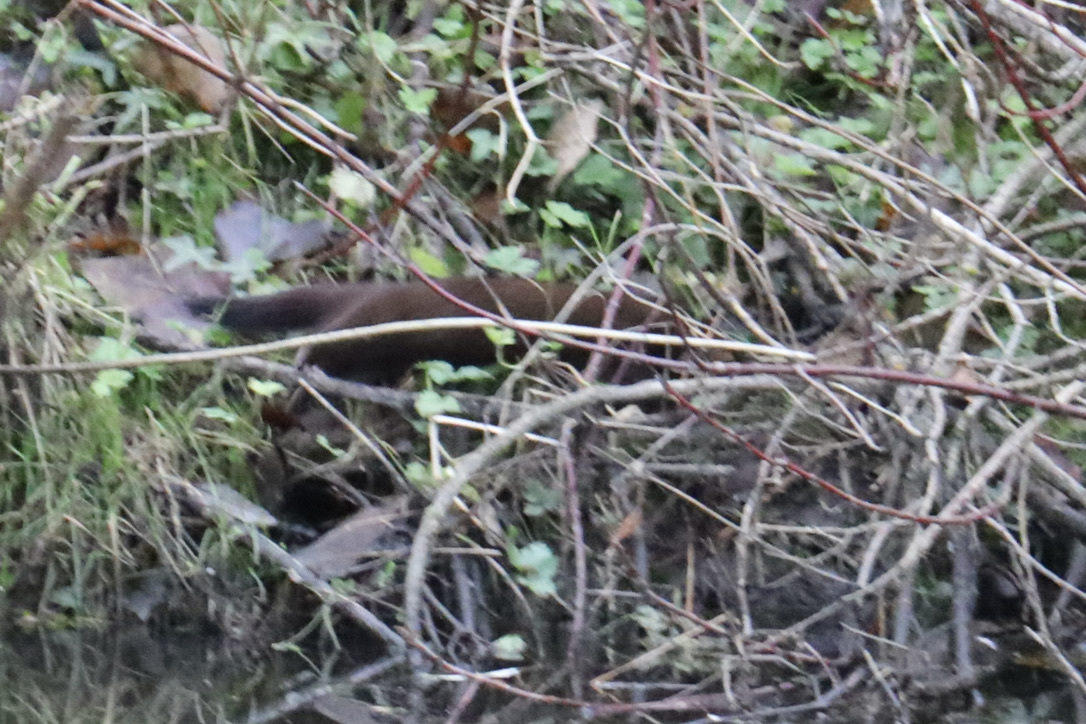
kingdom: Animalia
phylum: Chordata
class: Mammalia
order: Carnivora
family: Mustelidae
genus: Mustela
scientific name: Mustela
